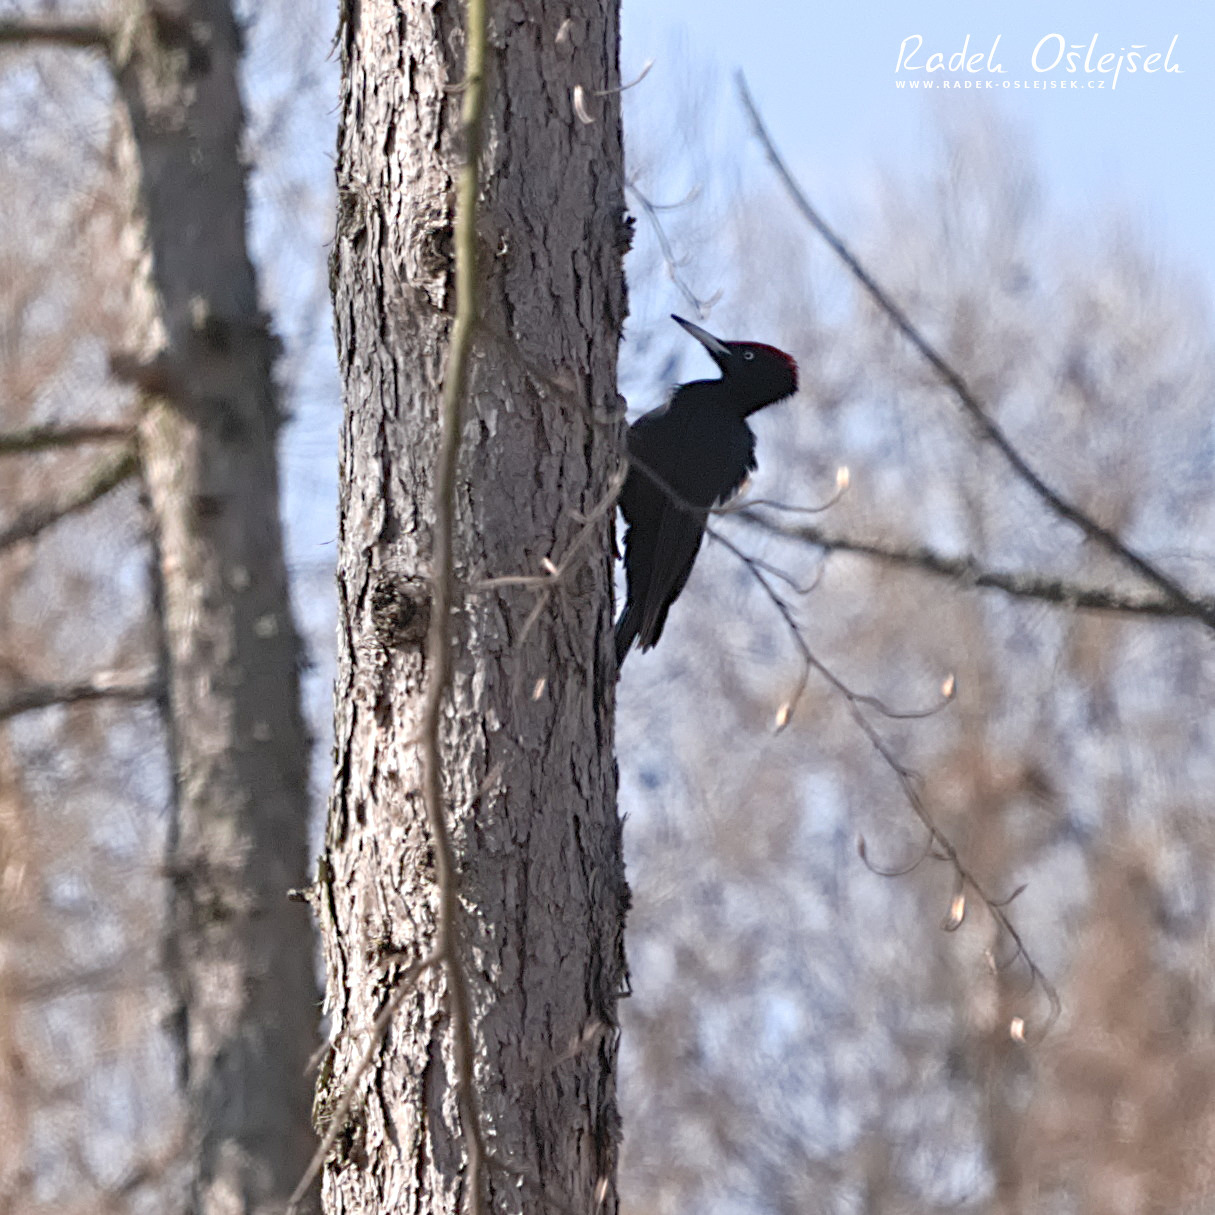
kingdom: Animalia
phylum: Chordata
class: Aves
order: Piciformes
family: Picidae
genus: Dryocopus
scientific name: Dryocopus martius
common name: Black woodpecker
